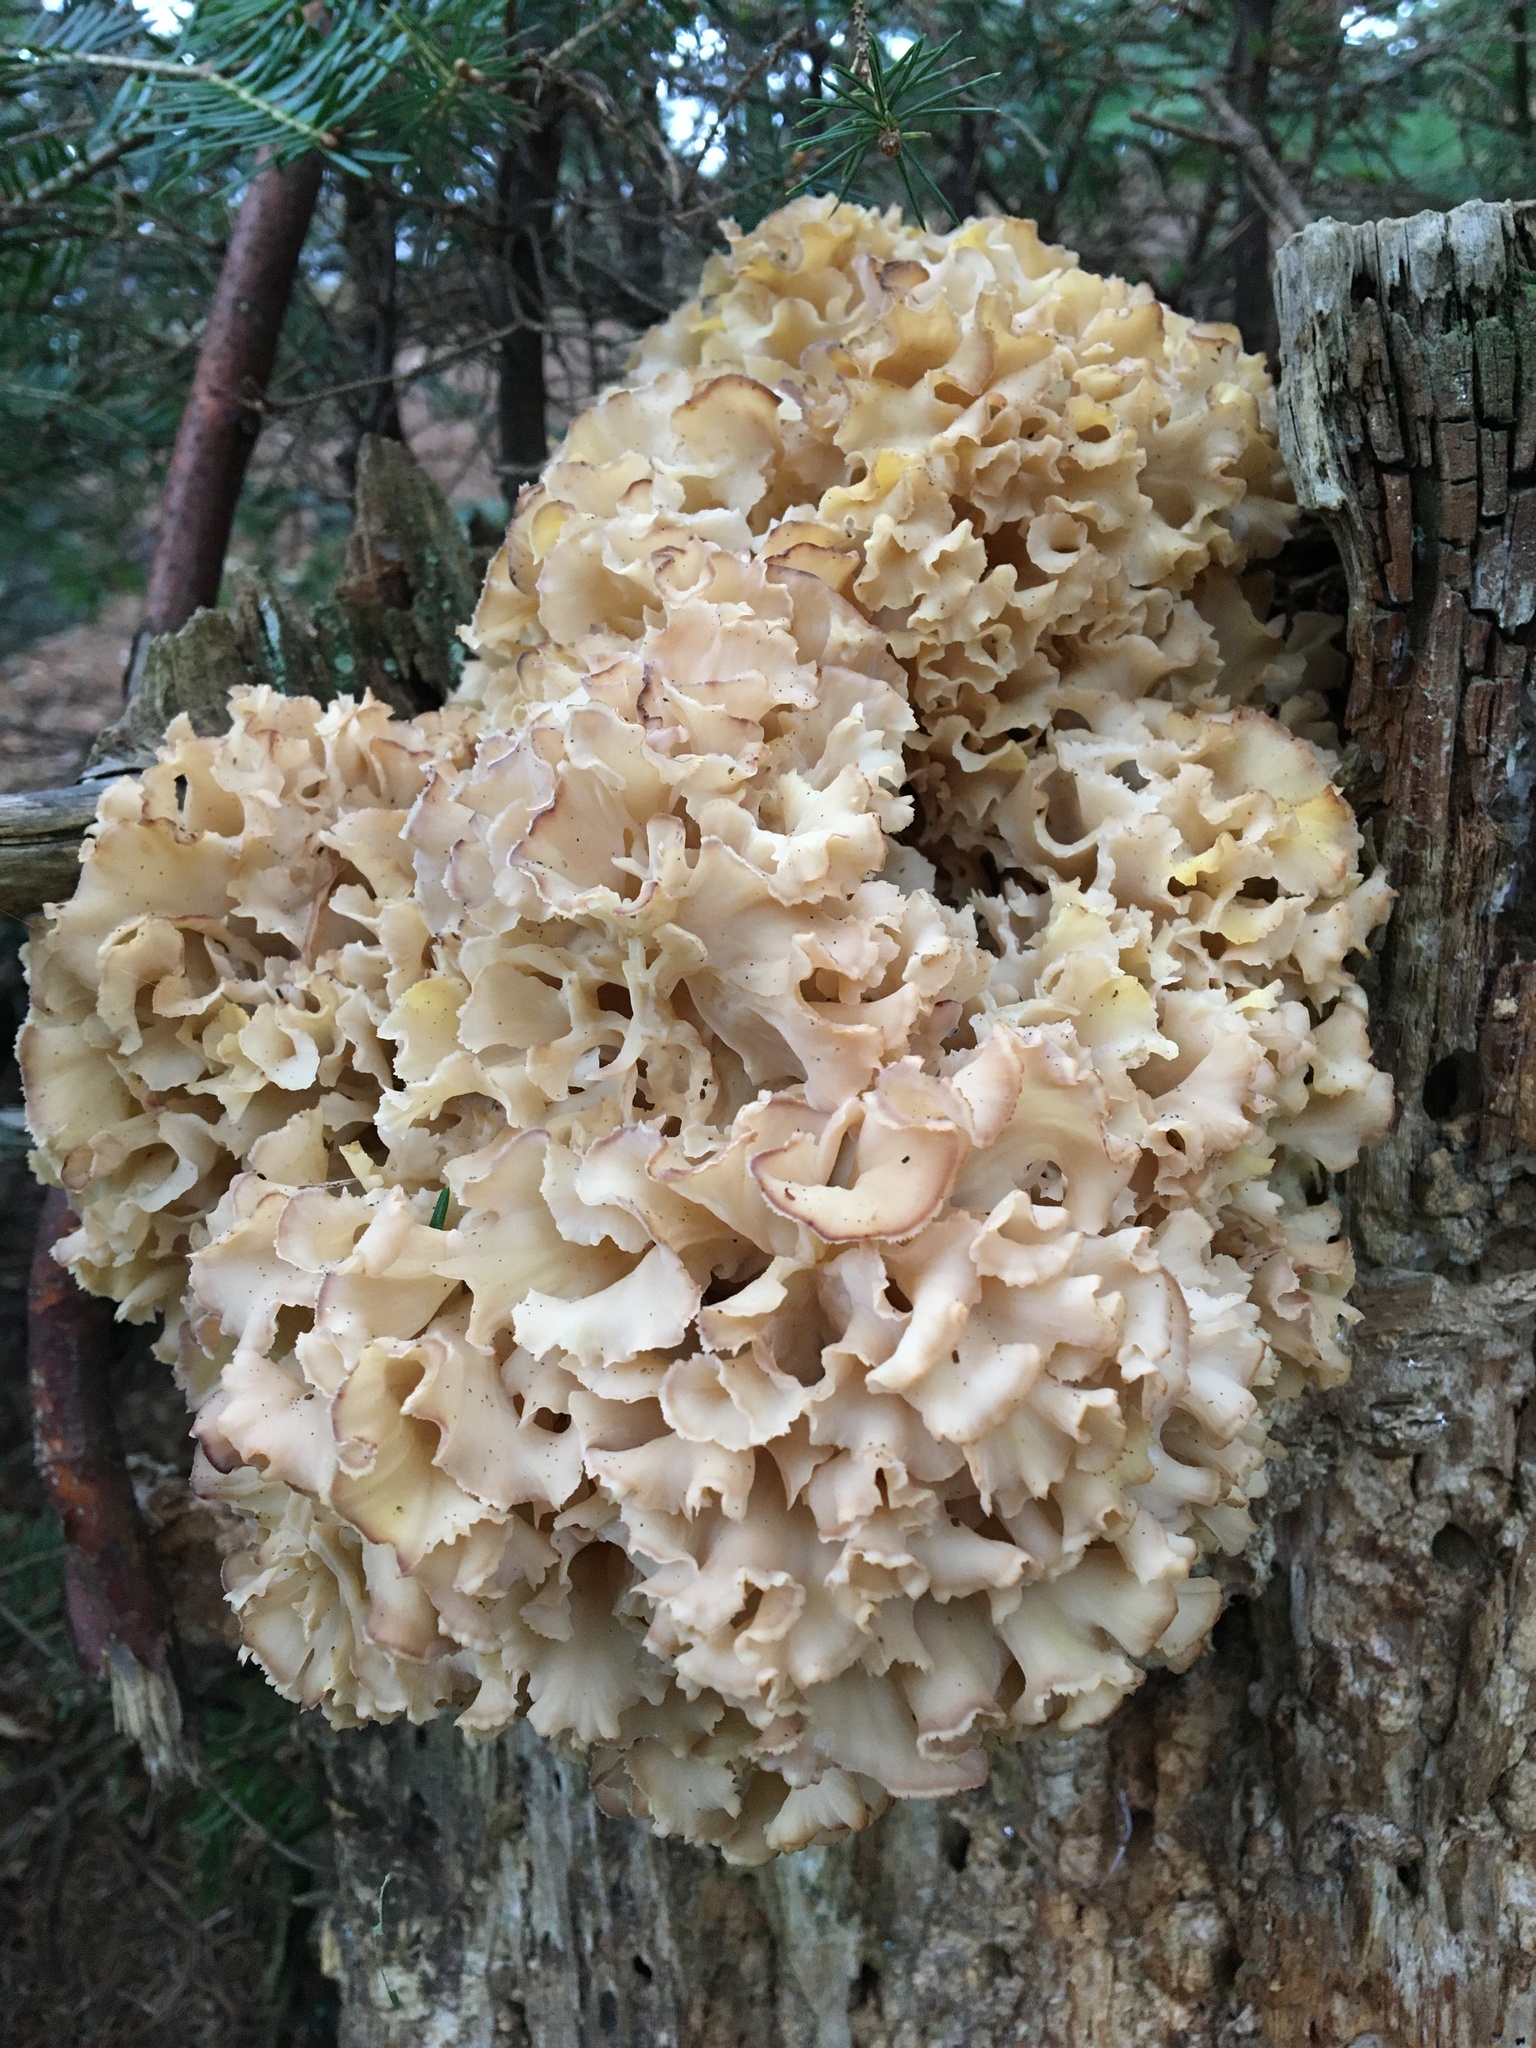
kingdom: Fungi
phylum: Basidiomycota
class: Agaricomycetes
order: Polyporales
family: Sparassidaceae
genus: Sparassis
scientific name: Sparassis crispa
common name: Brain fungus
